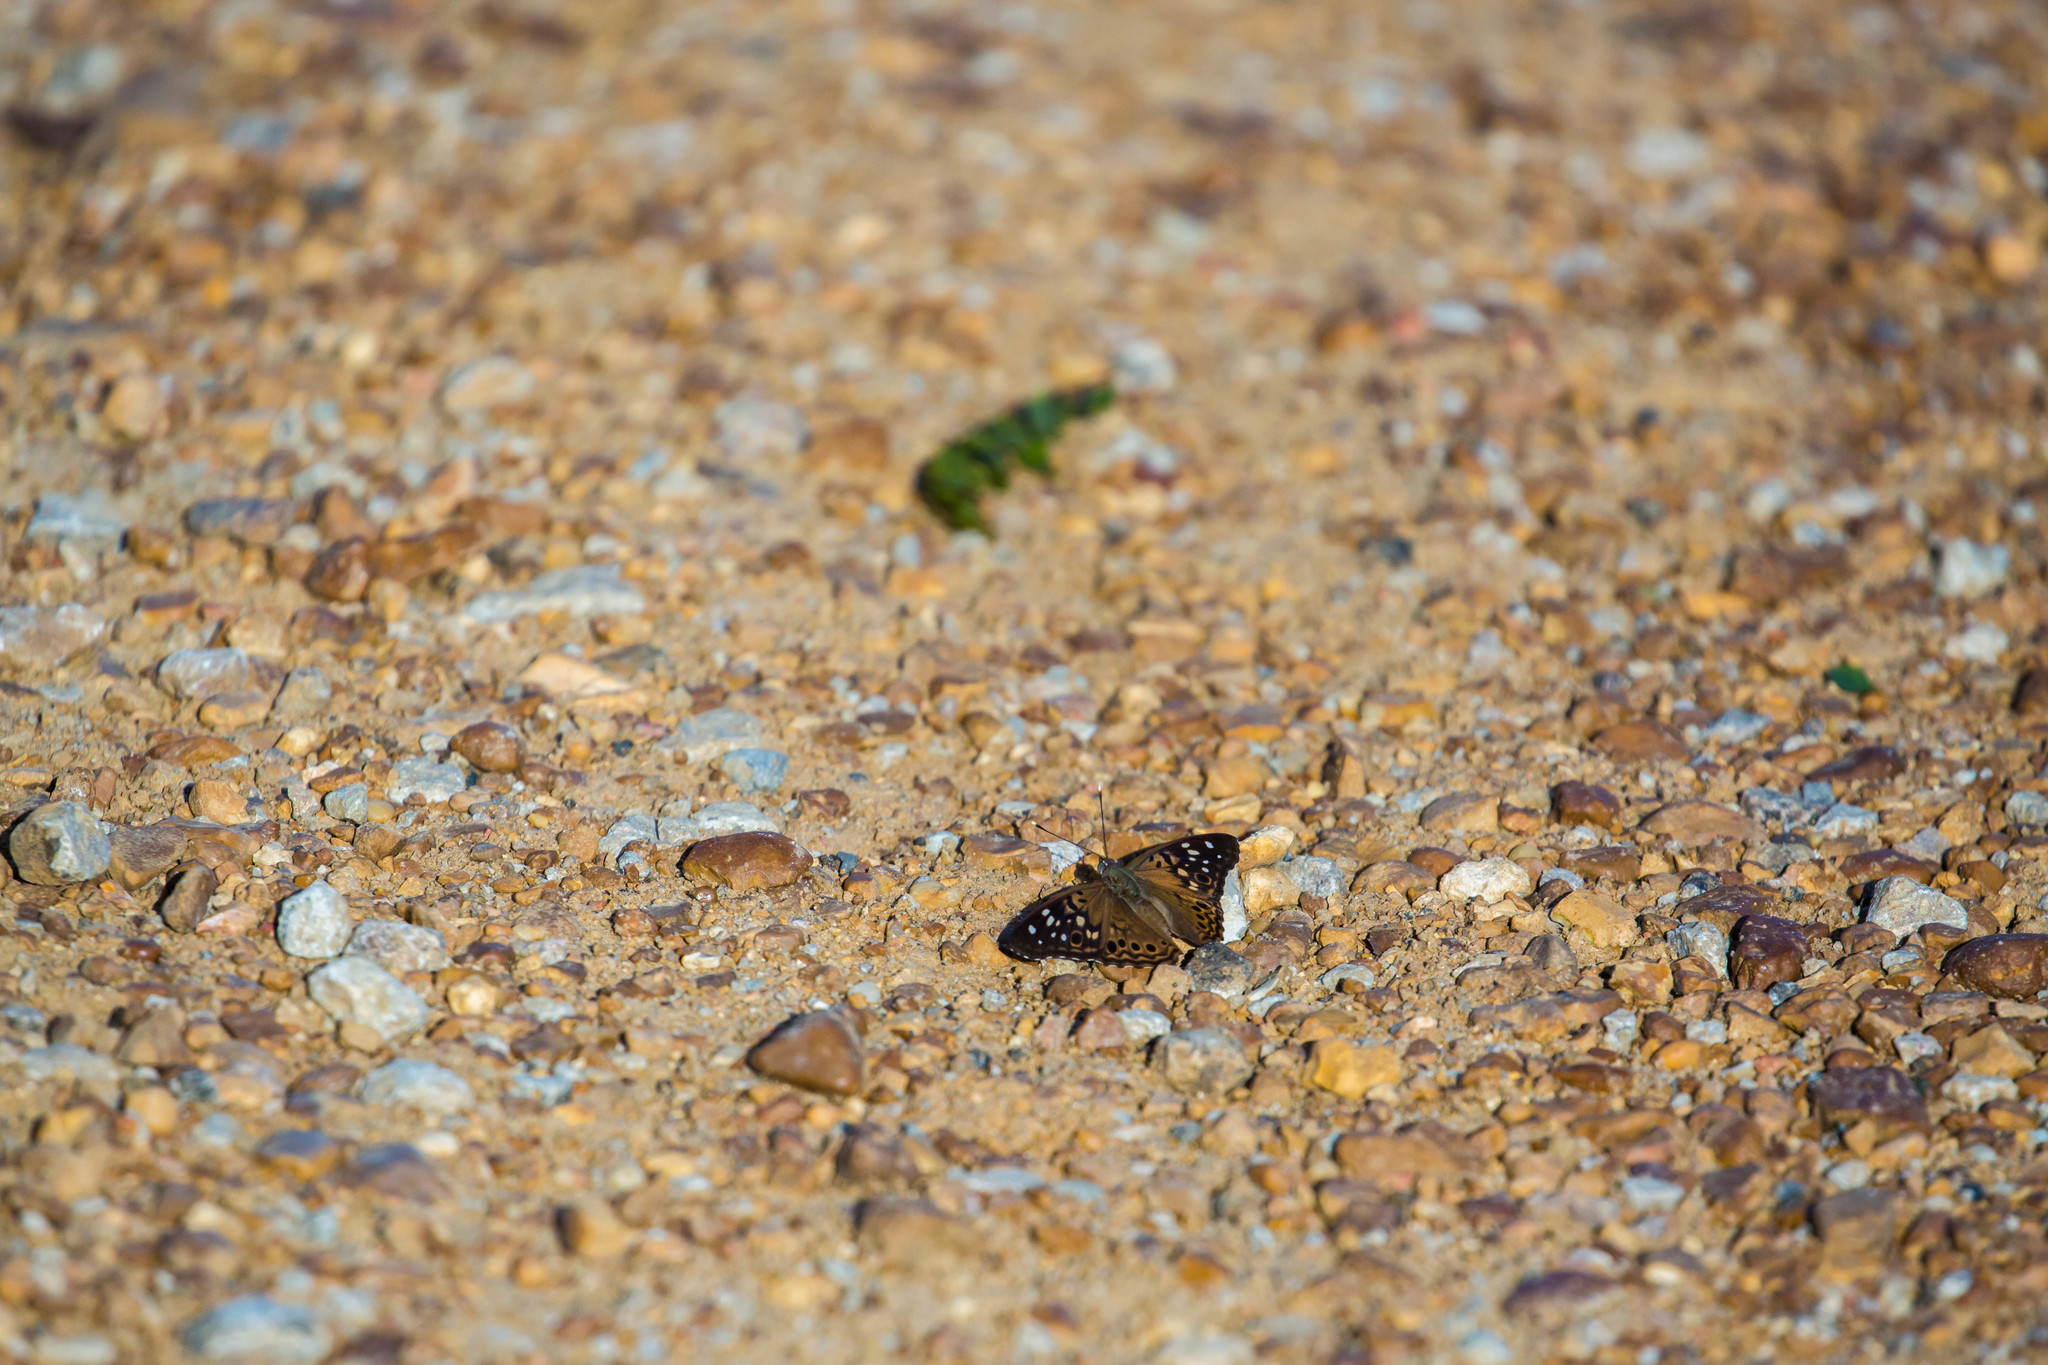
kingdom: Animalia
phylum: Arthropoda
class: Insecta
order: Lepidoptera
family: Nymphalidae
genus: Asterocampa
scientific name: Asterocampa celtis
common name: Hackberry emperor
